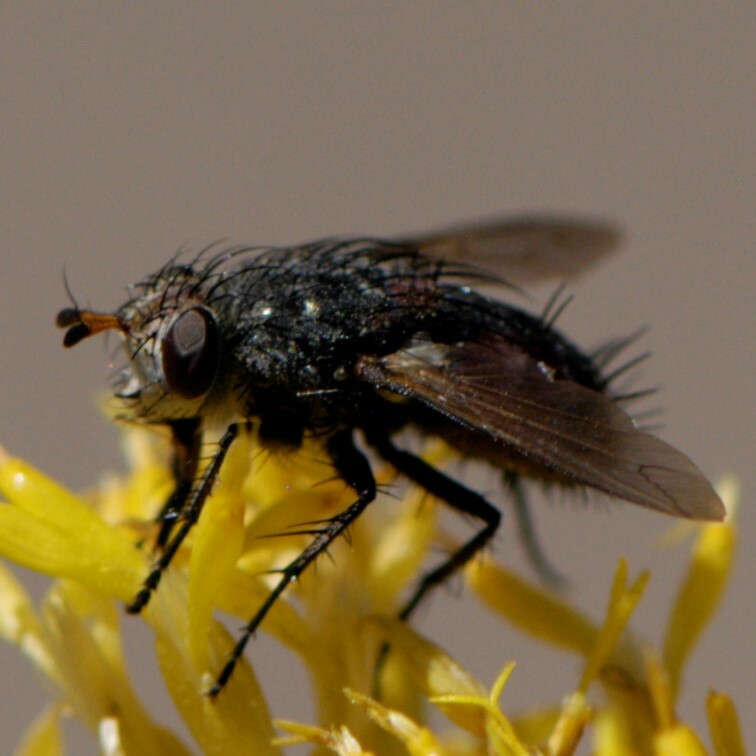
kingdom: Animalia
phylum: Arthropoda
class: Insecta
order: Diptera
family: Tachinidae
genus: Peleteria
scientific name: Peleteria
